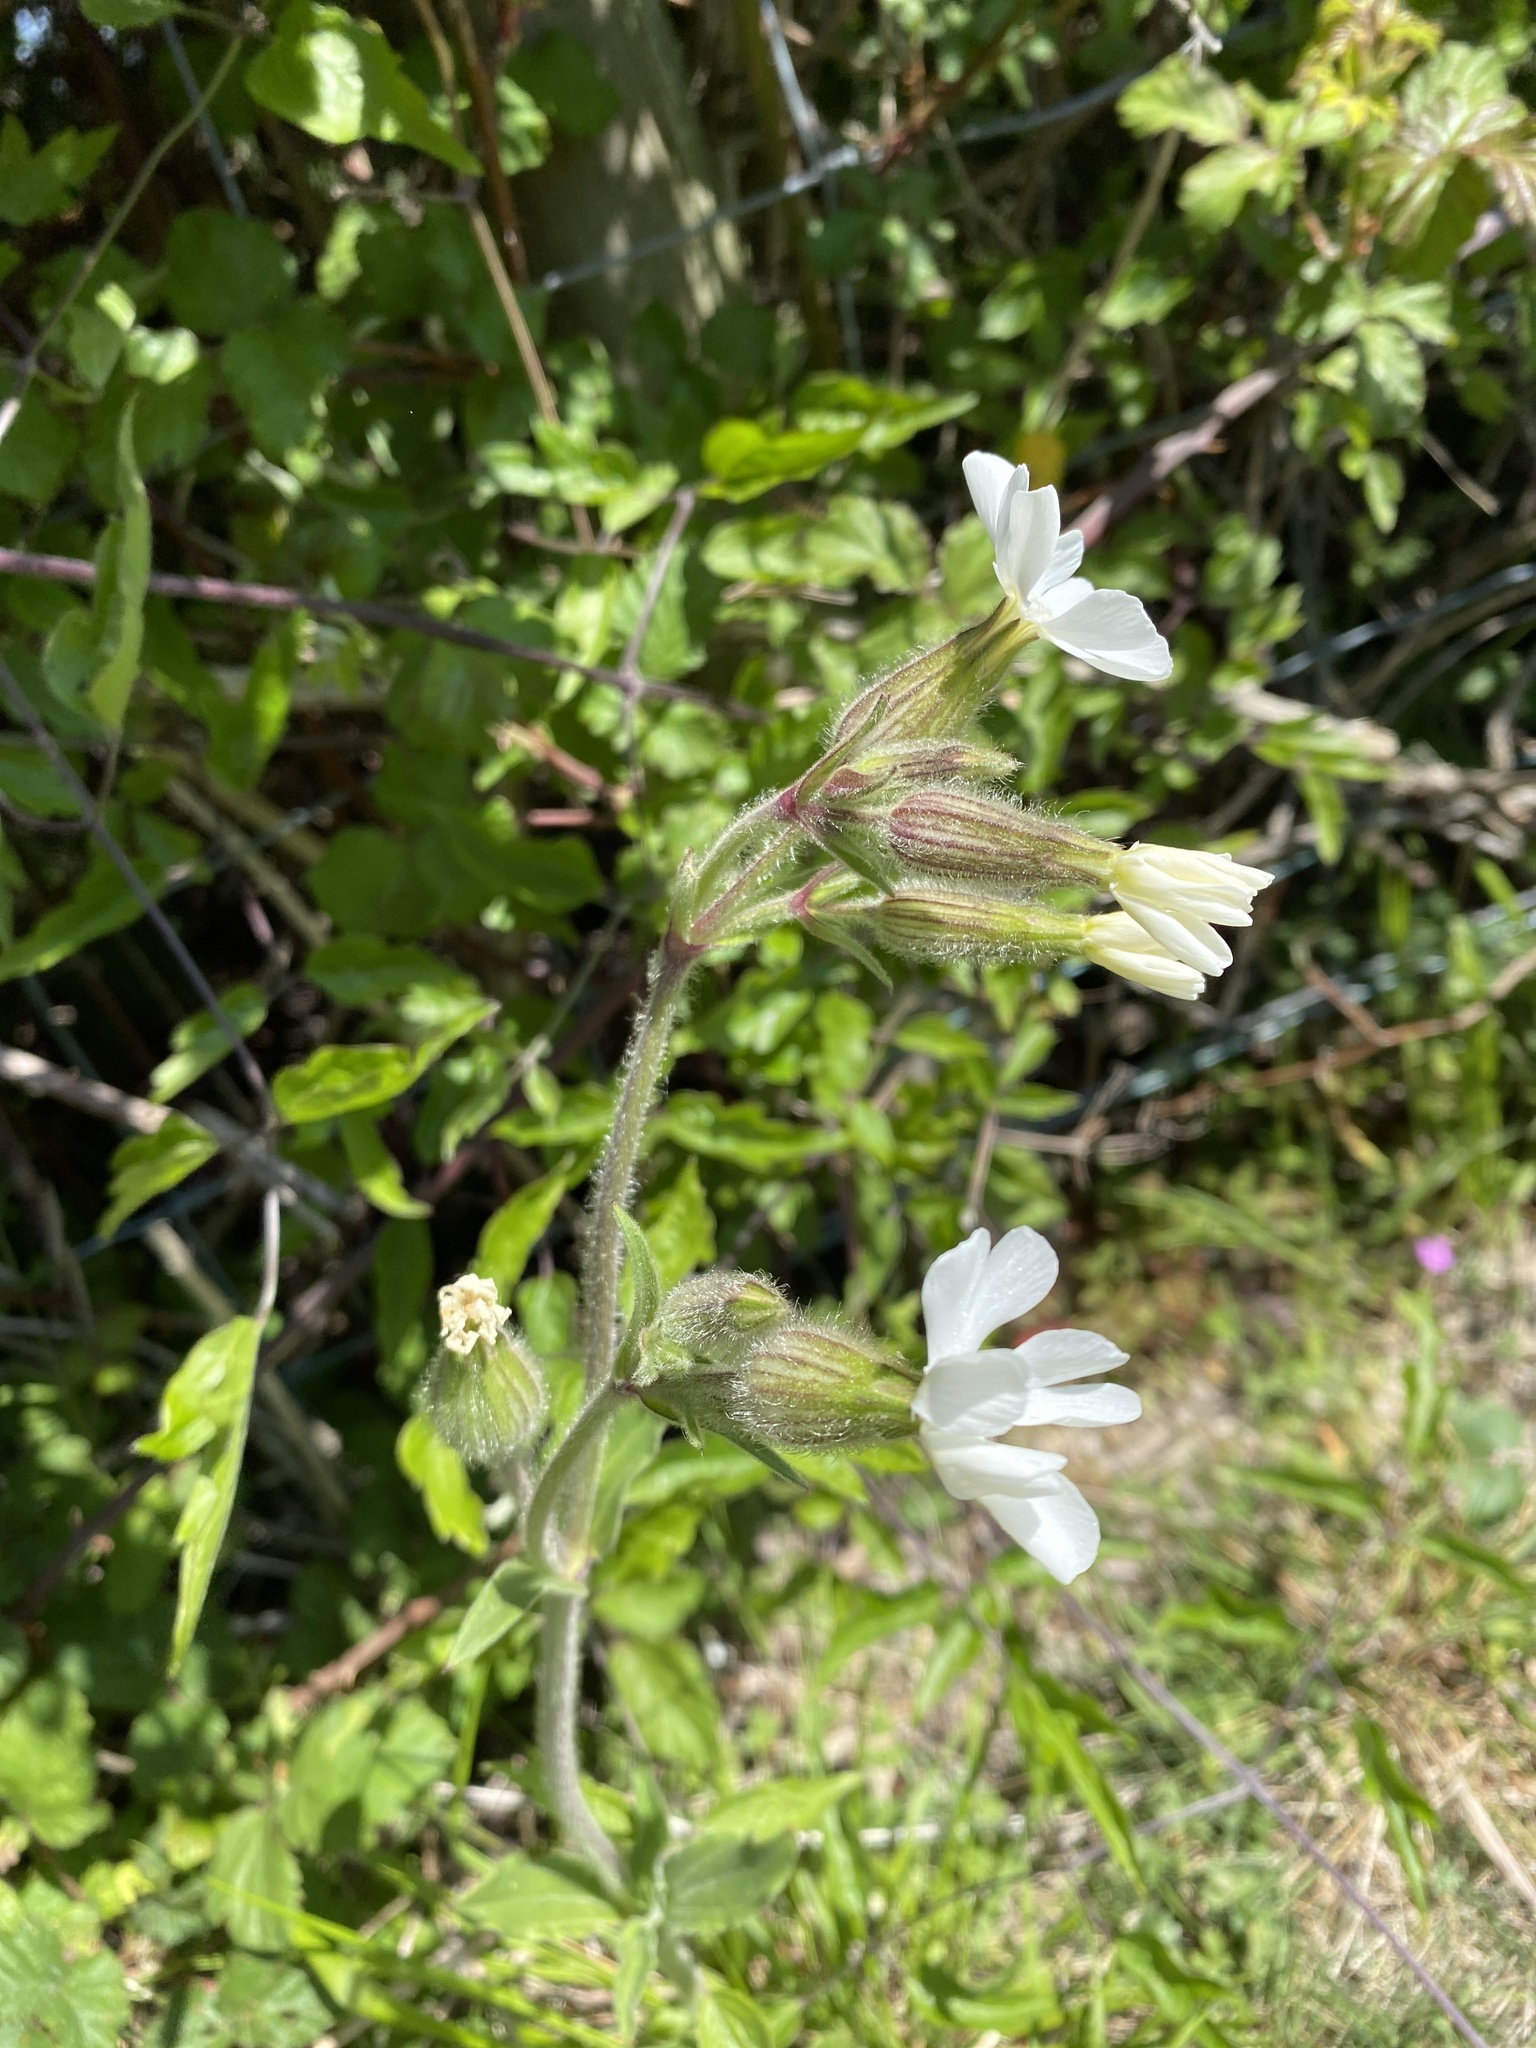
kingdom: Plantae
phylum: Tracheophyta
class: Magnoliopsida
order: Caryophyllales
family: Caryophyllaceae
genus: Silene
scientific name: Silene latifolia
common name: White campion
